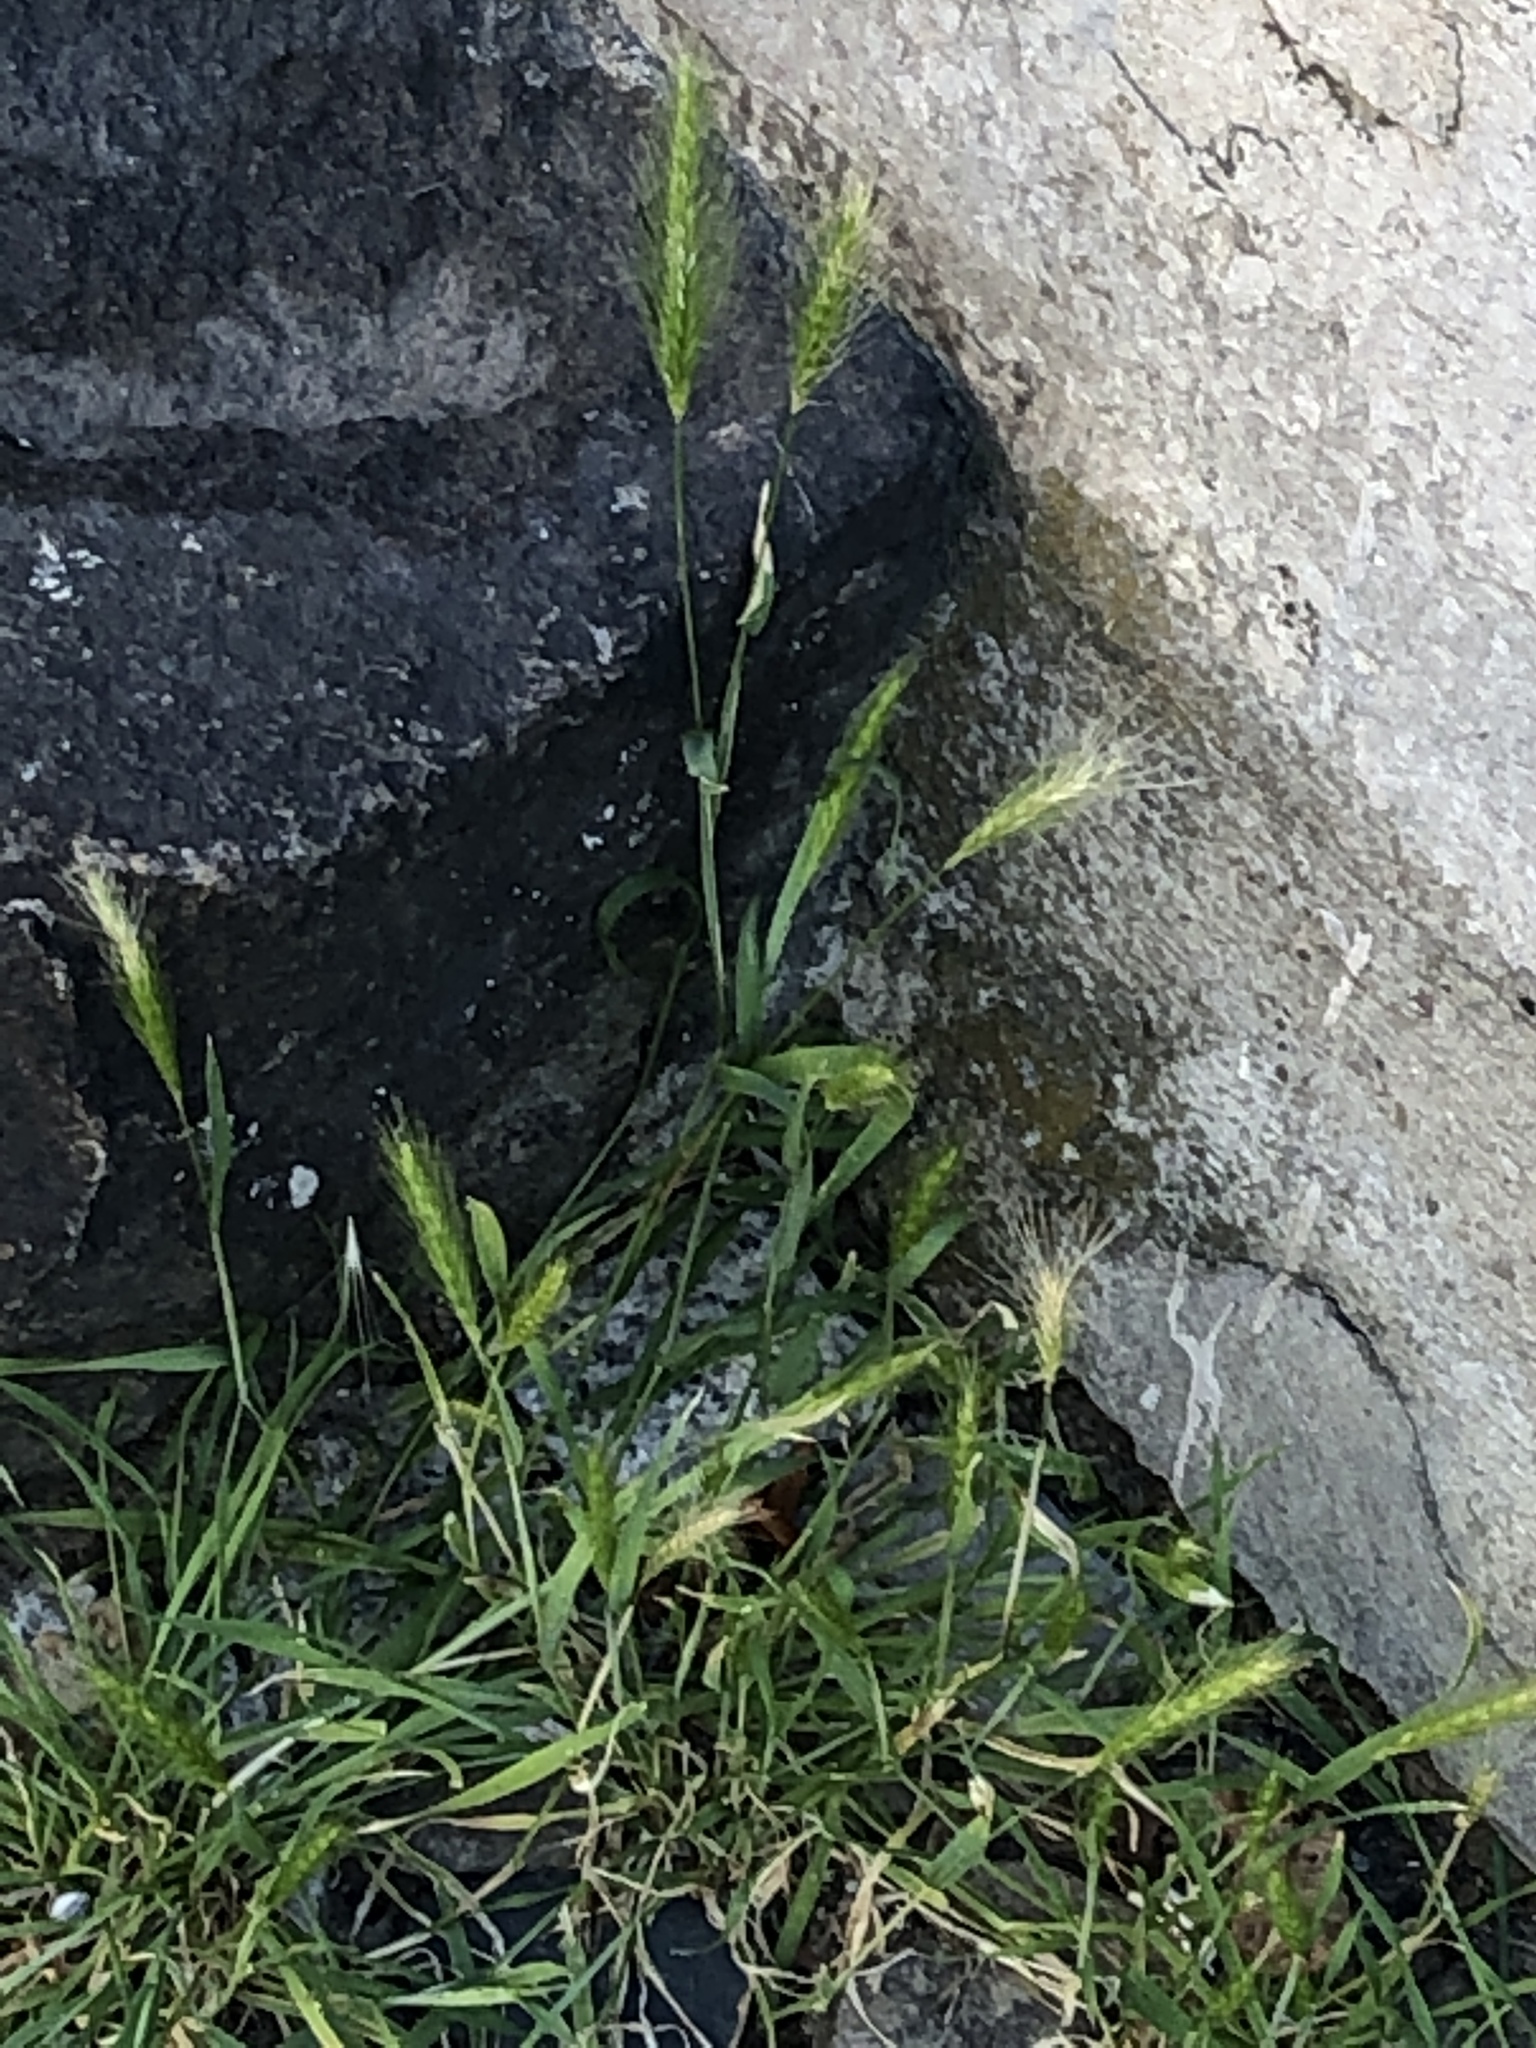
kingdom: Plantae
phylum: Tracheophyta
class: Liliopsida
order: Poales
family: Poaceae
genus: Hordeum
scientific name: Hordeum murinum
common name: Wall barley
